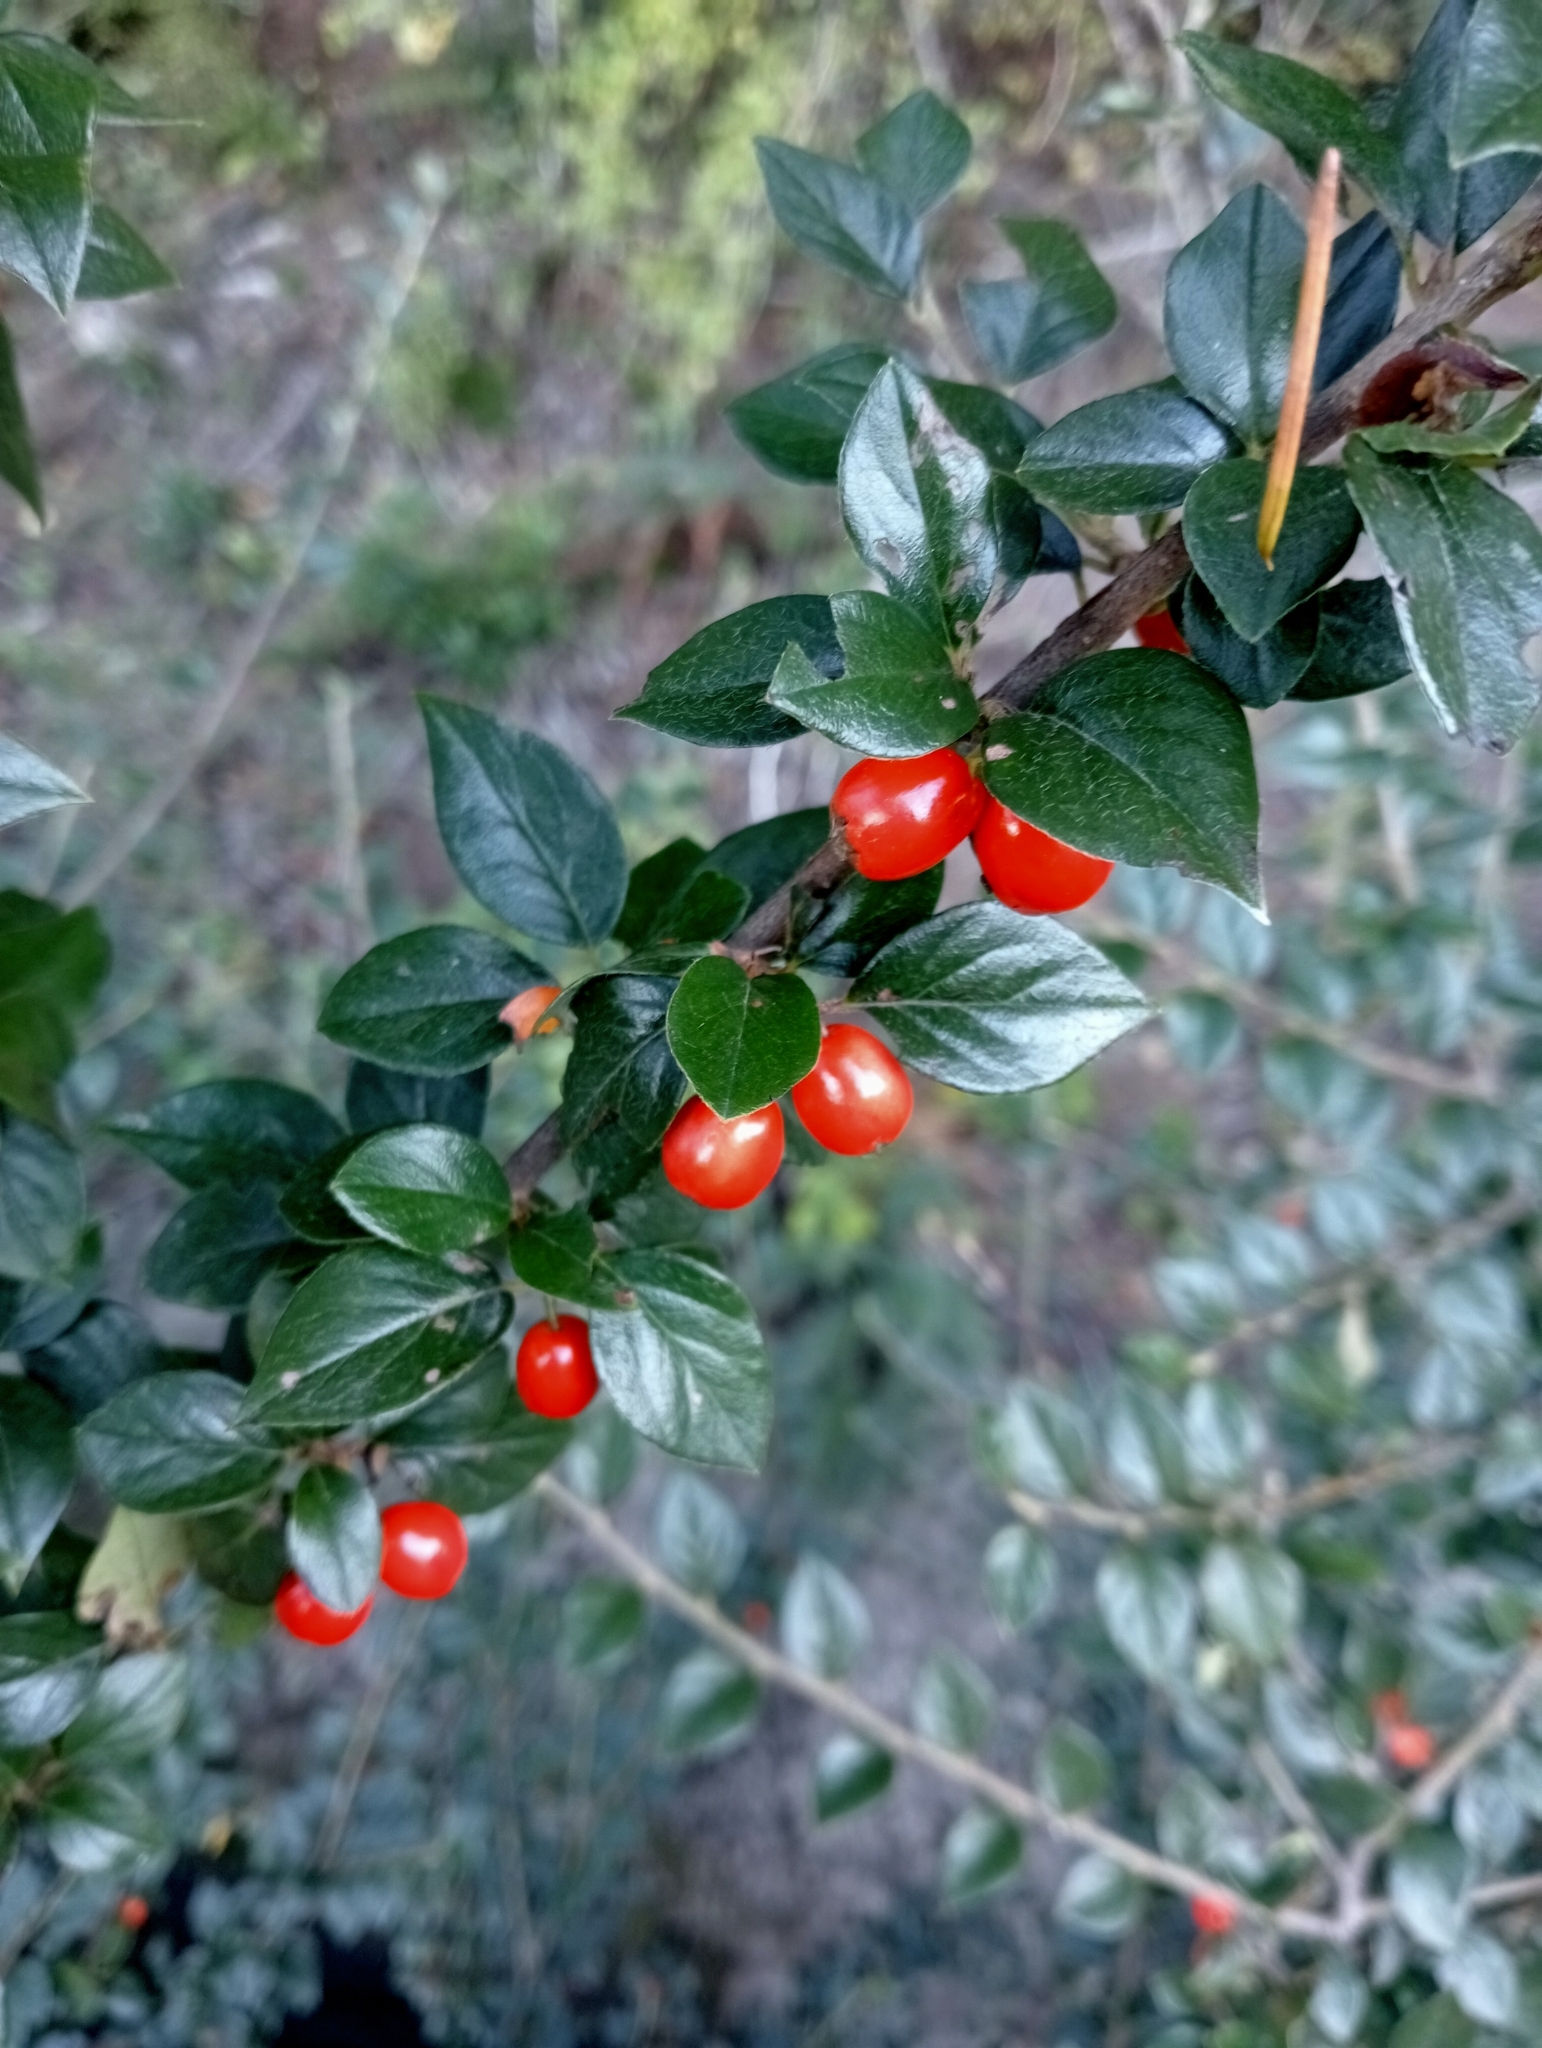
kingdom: Plantae
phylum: Tracheophyta
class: Magnoliopsida
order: Rosales
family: Rosaceae
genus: Cotoneaster
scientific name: Cotoneaster simonsii
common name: Himalayan cotoneaster
